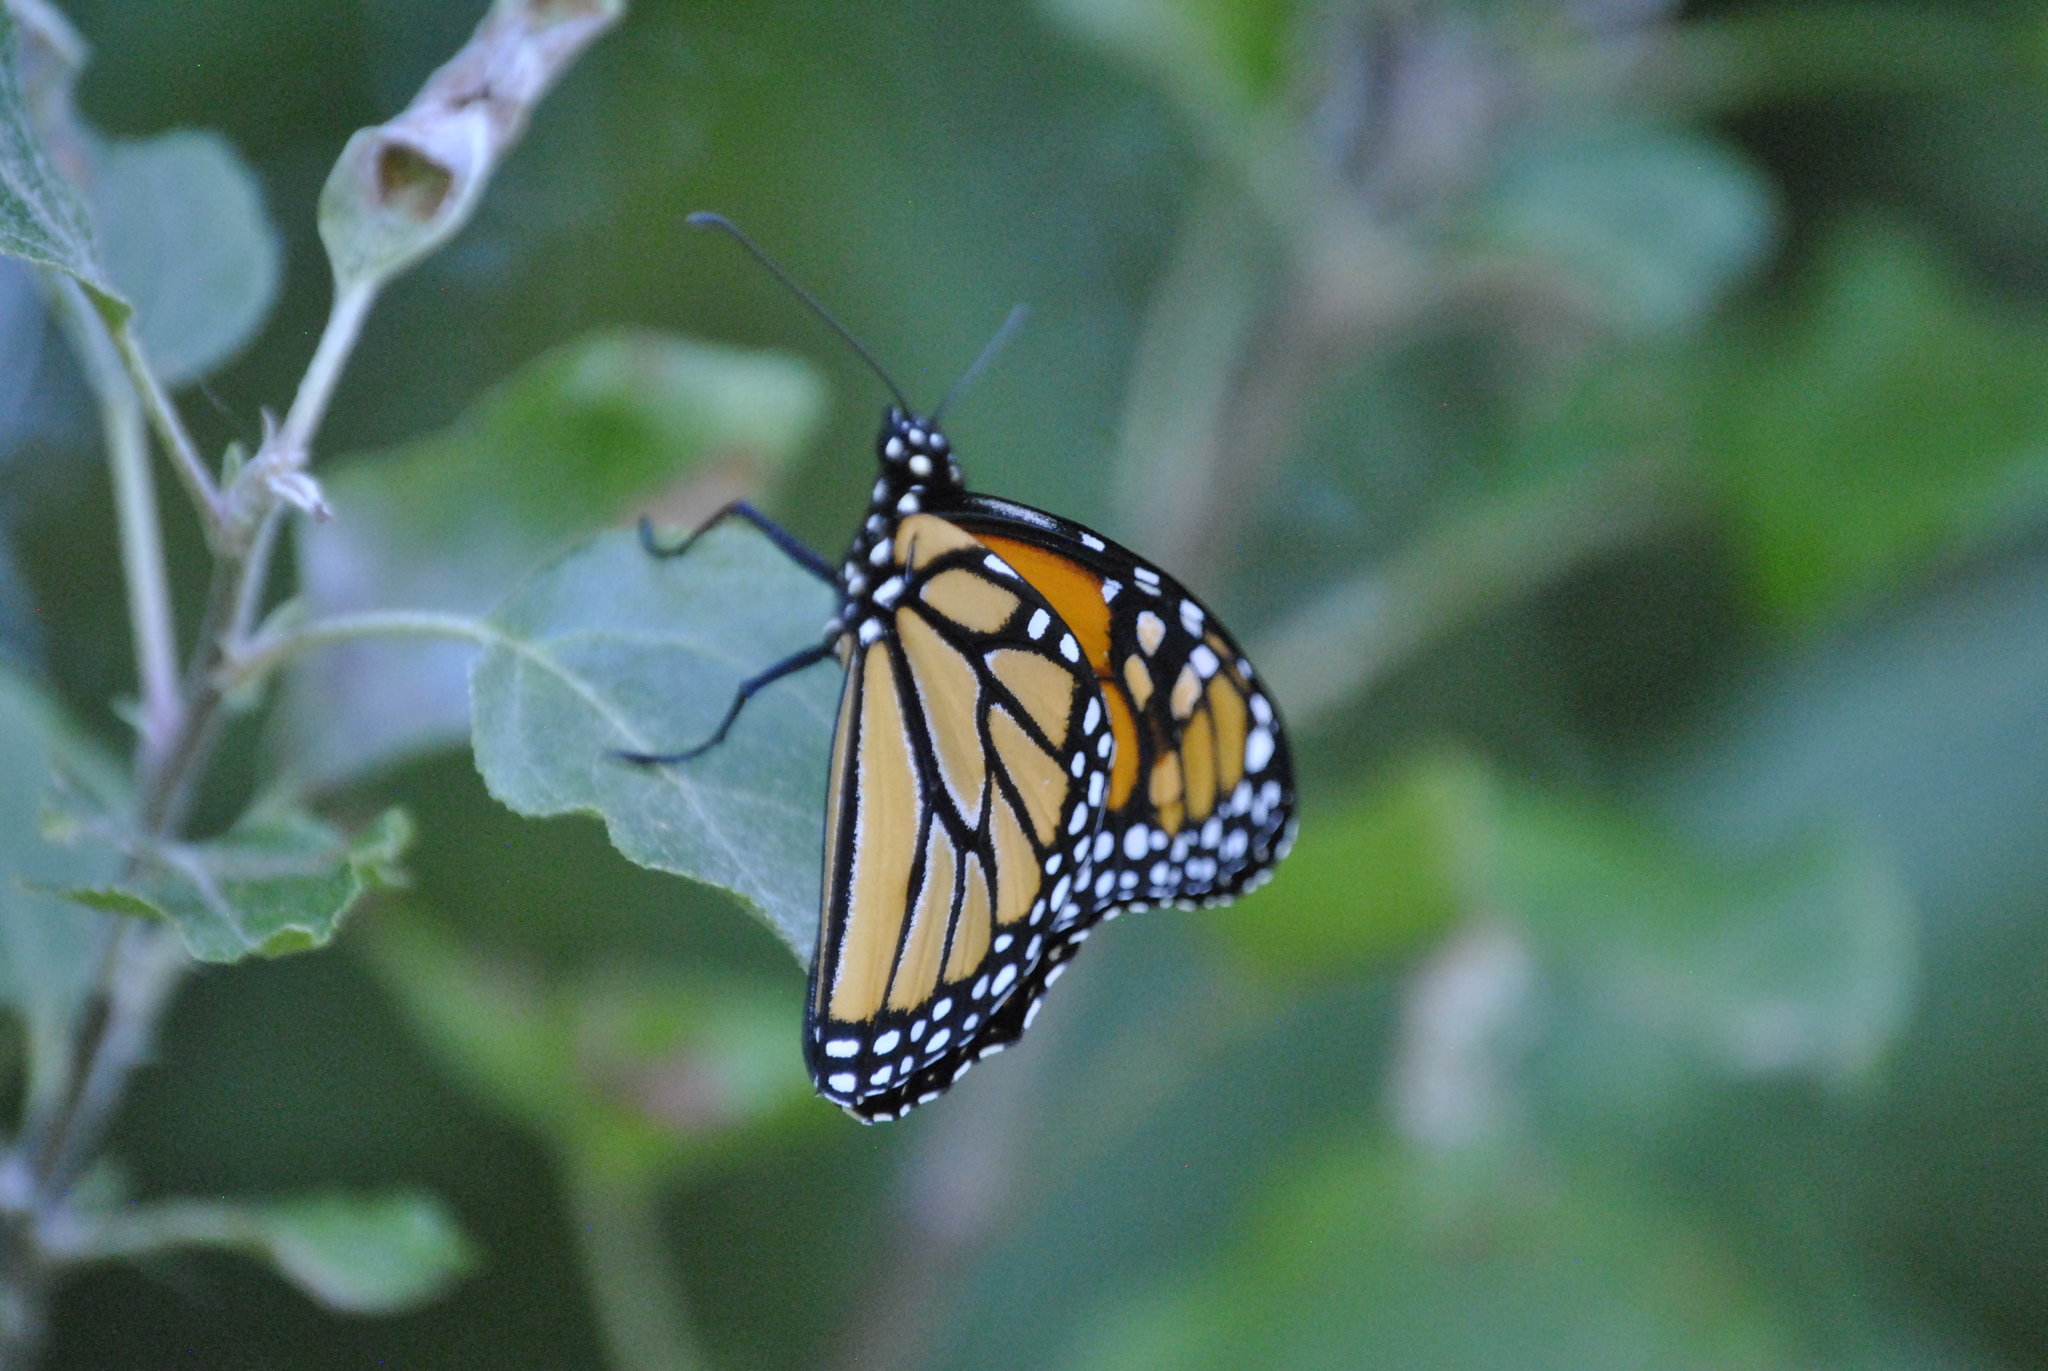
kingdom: Animalia
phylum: Arthropoda
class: Insecta
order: Lepidoptera
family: Nymphalidae
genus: Danaus
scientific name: Danaus plexippus
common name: Monarch
